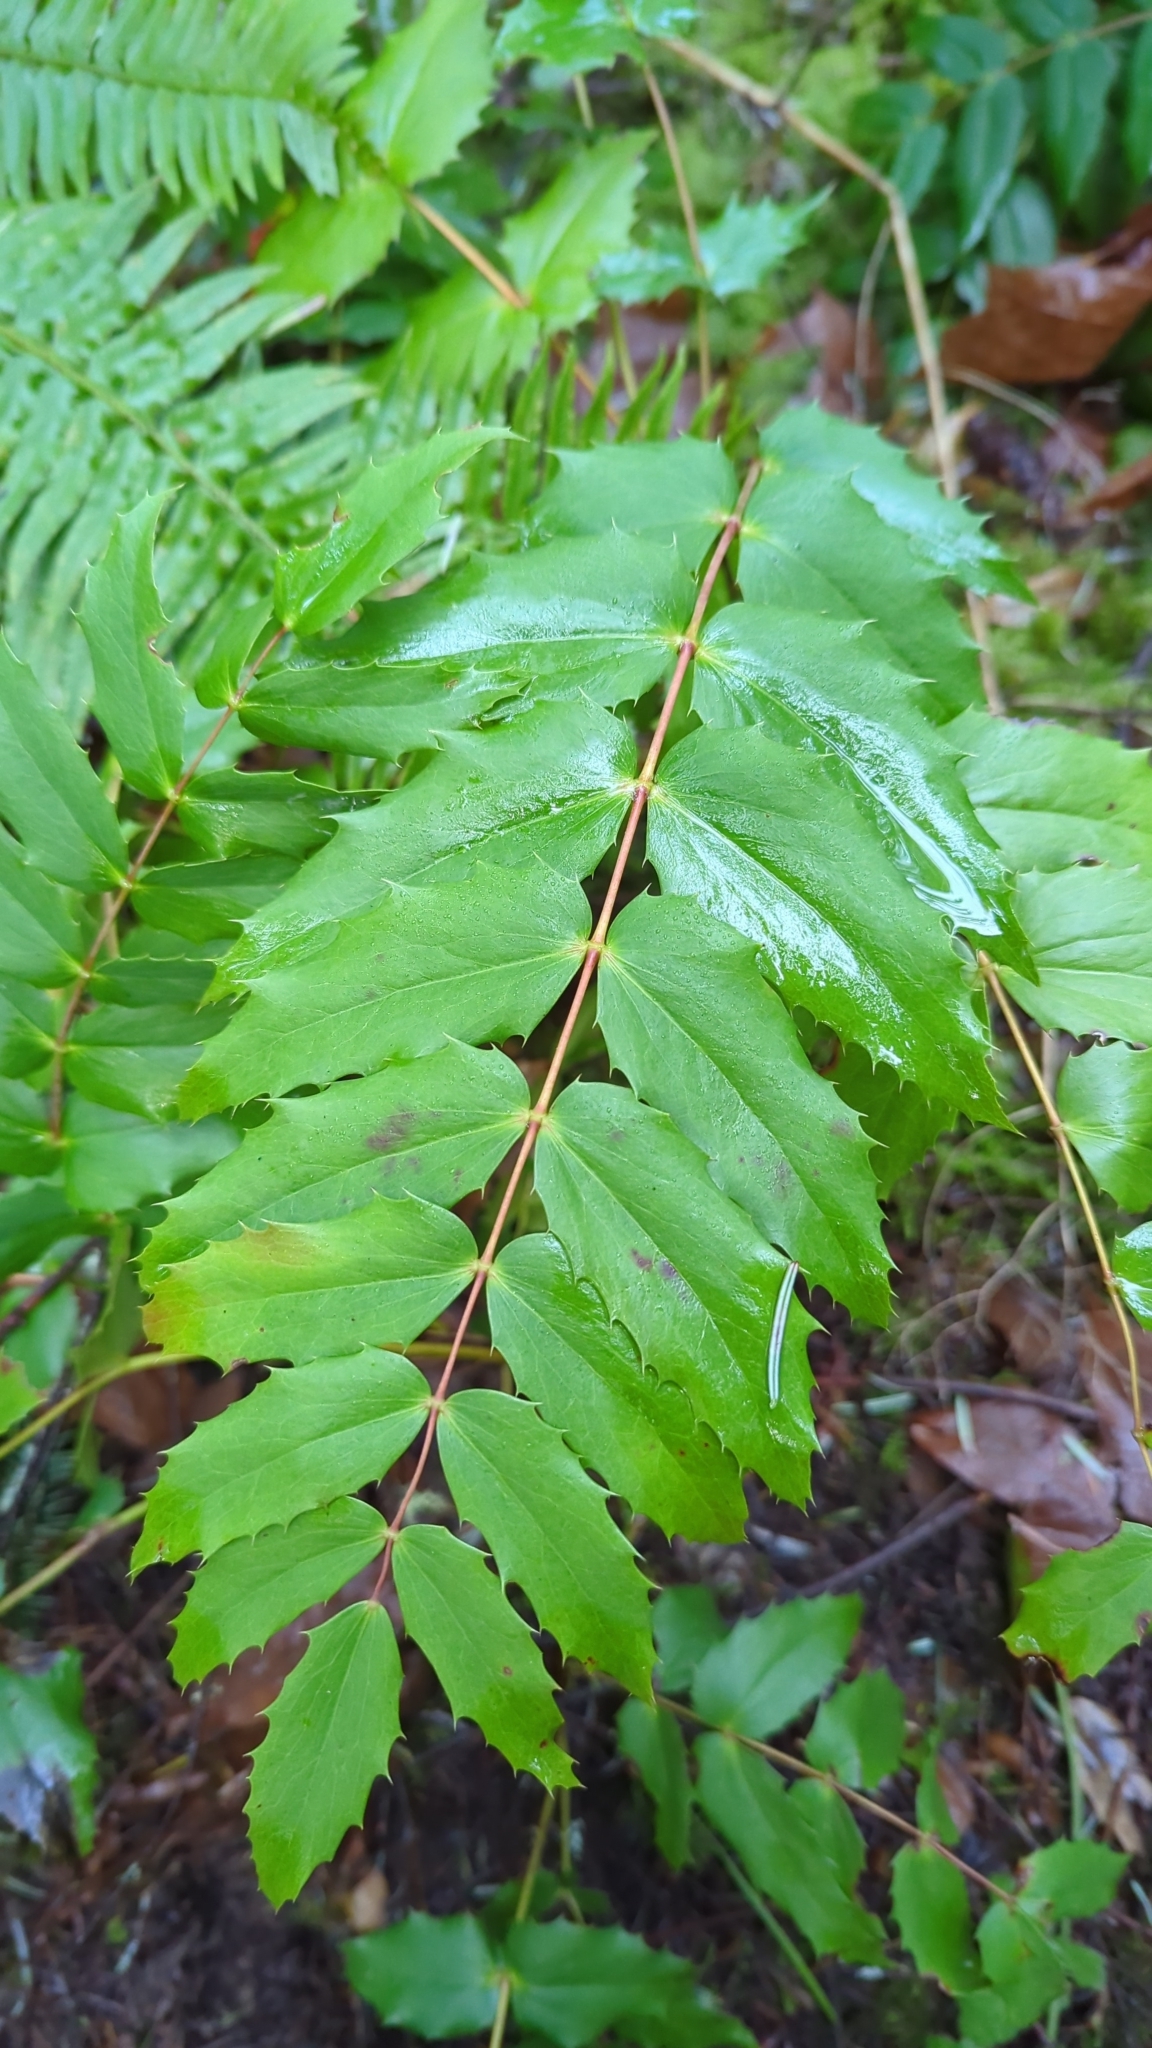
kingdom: Plantae
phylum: Tracheophyta
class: Magnoliopsida
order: Ranunculales
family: Berberidaceae
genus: Mahonia
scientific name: Mahonia nervosa
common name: Cascade oregon-grape
